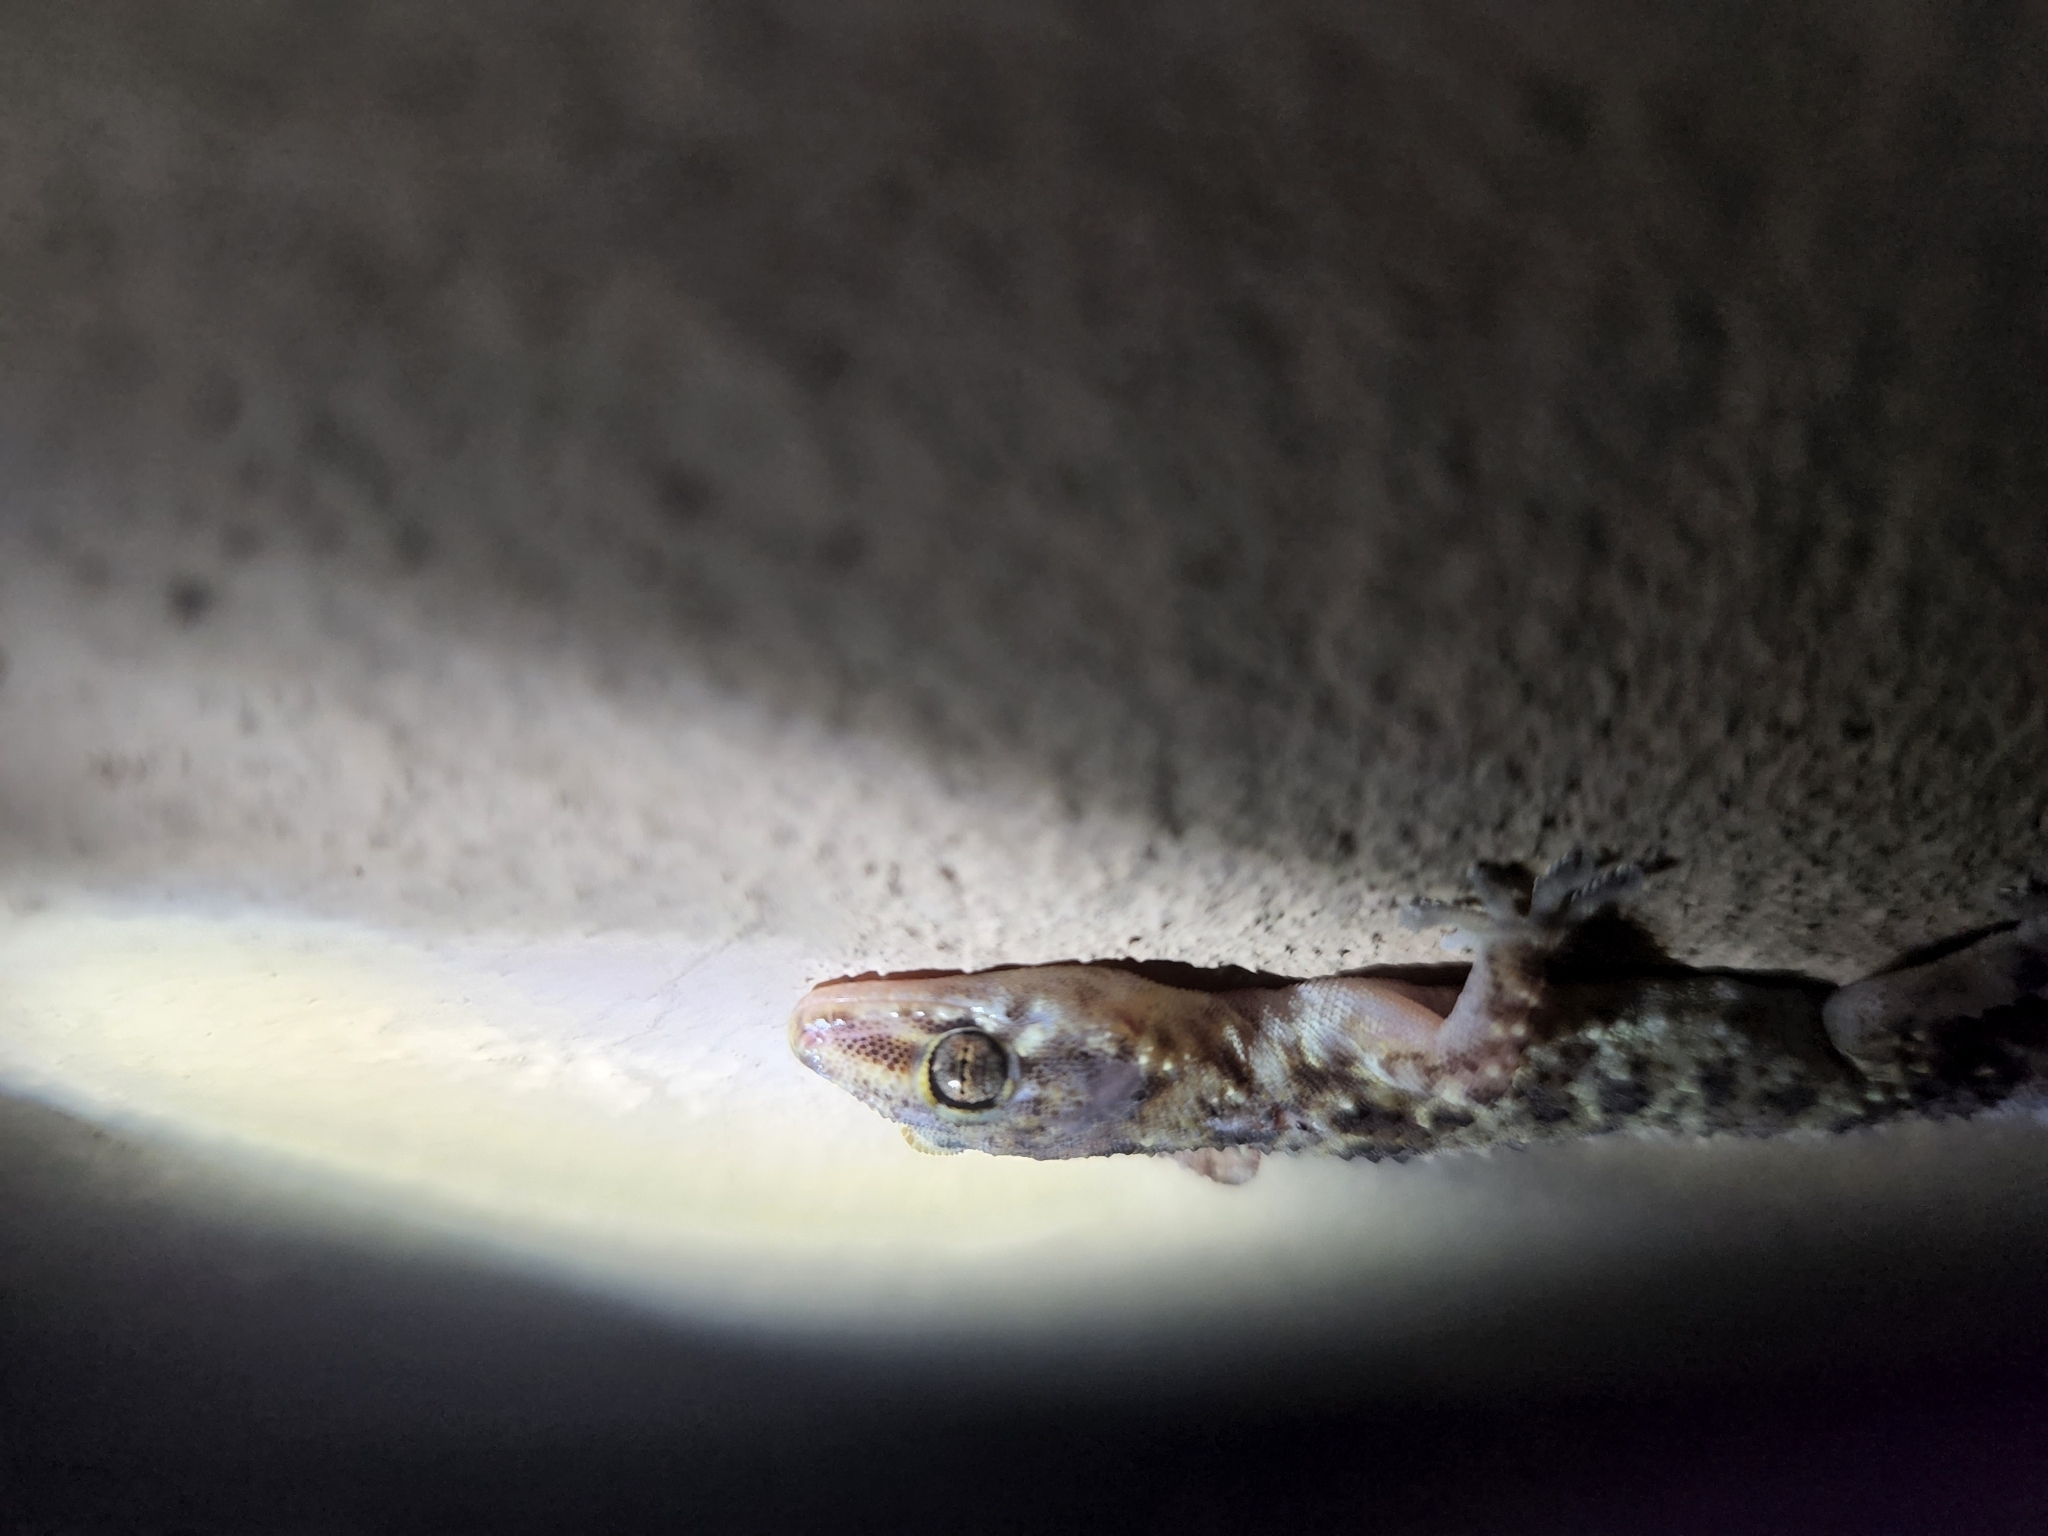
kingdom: Animalia
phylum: Chordata
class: Squamata
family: Gekkonidae
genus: Hemidactylus
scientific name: Hemidactylus turcicus
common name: Turkish gecko
